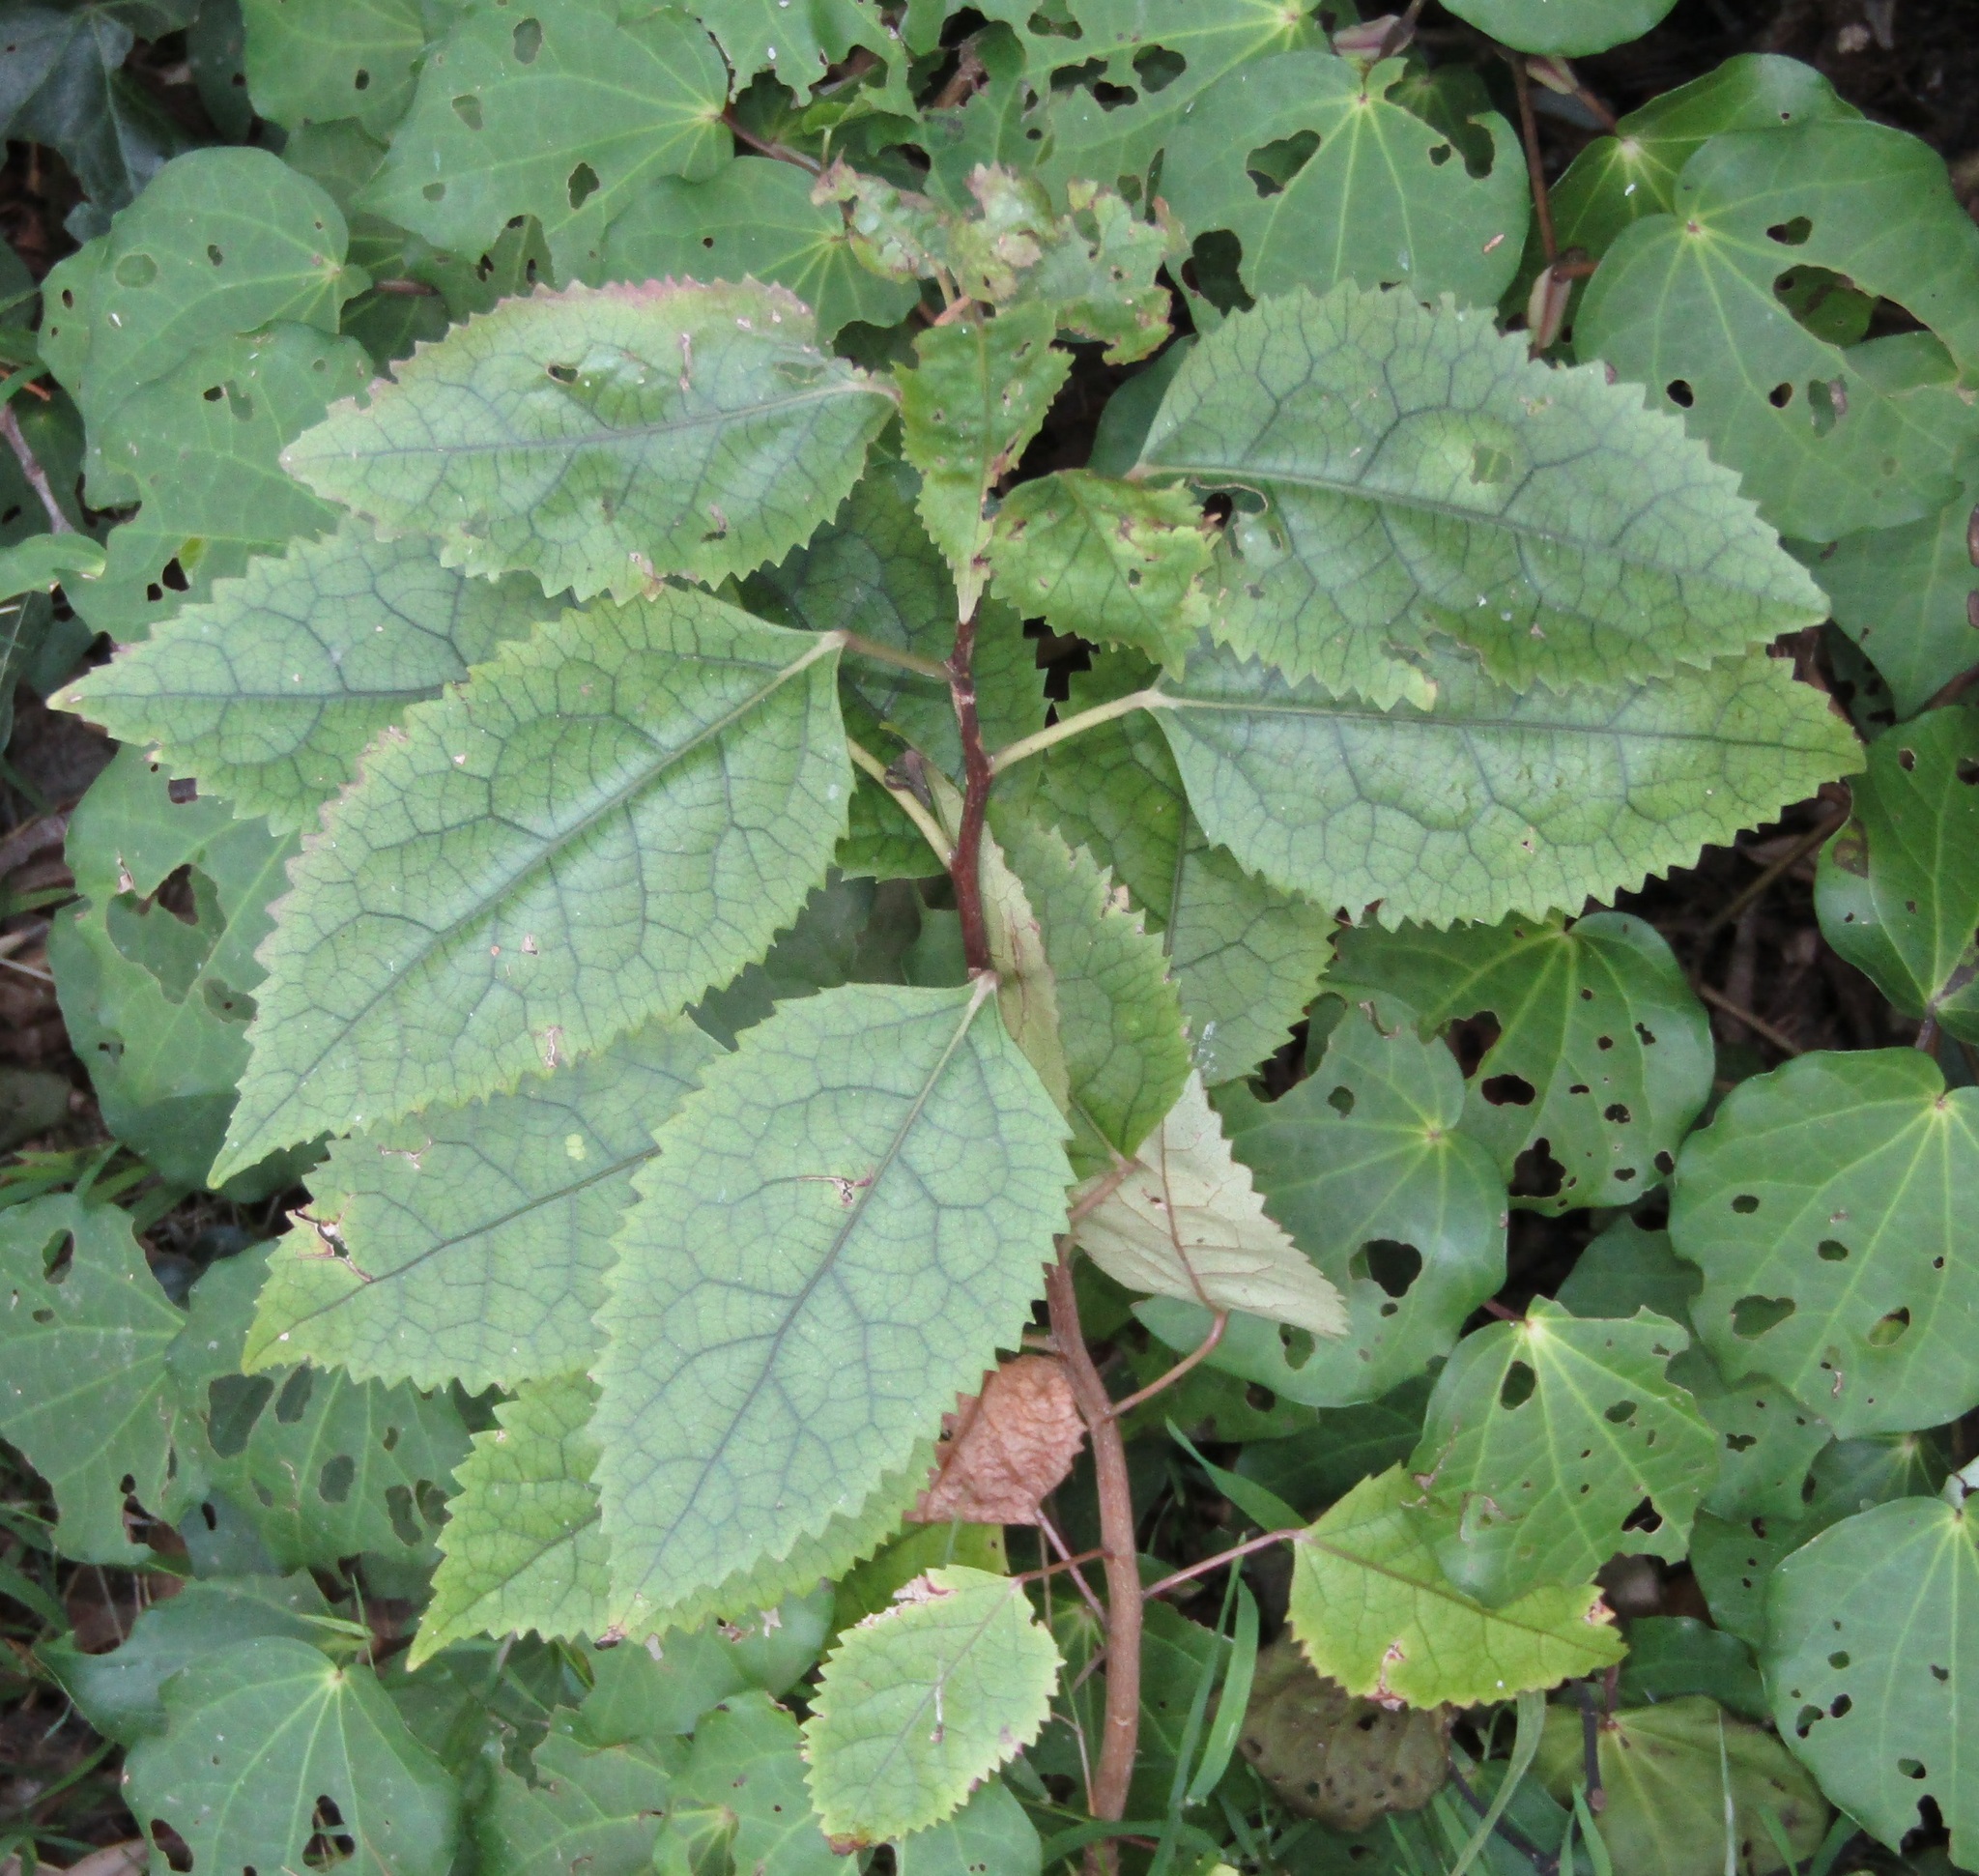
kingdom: Plantae
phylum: Tracheophyta
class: Magnoliopsida
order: Malvales
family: Malvaceae
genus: Hoheria
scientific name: Hoheria populnea
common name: Lacebark
